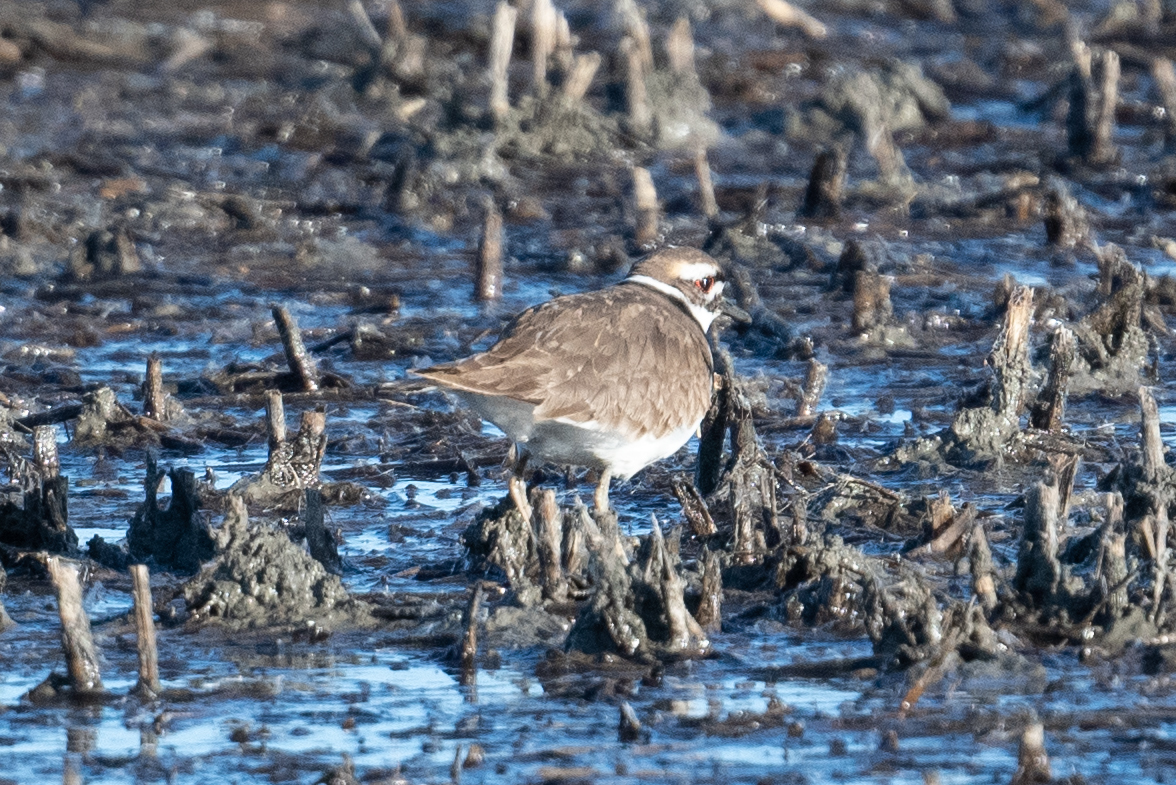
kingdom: Animalia
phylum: Chordata
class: Aves
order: Charadriiformes
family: Charadriidae
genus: Charadrius
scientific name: Charadrius vociferus
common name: Killdeer
